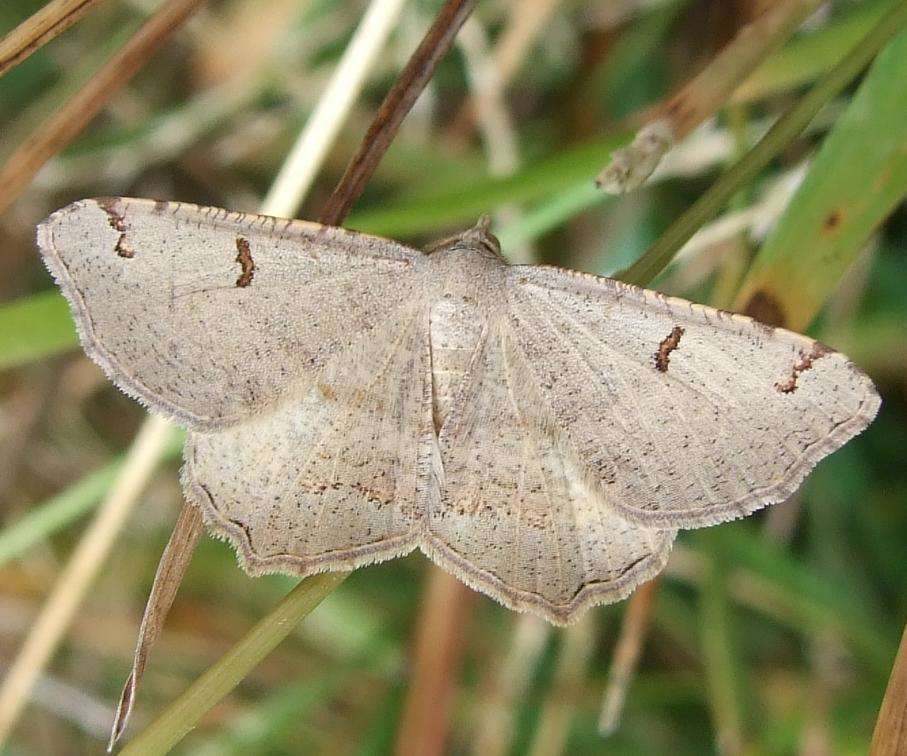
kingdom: Animalia
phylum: Arthropoda
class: Insecta
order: Lepidoptera
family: Geometridae
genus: Dissomorphia
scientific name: Dissomorphia australiaria
